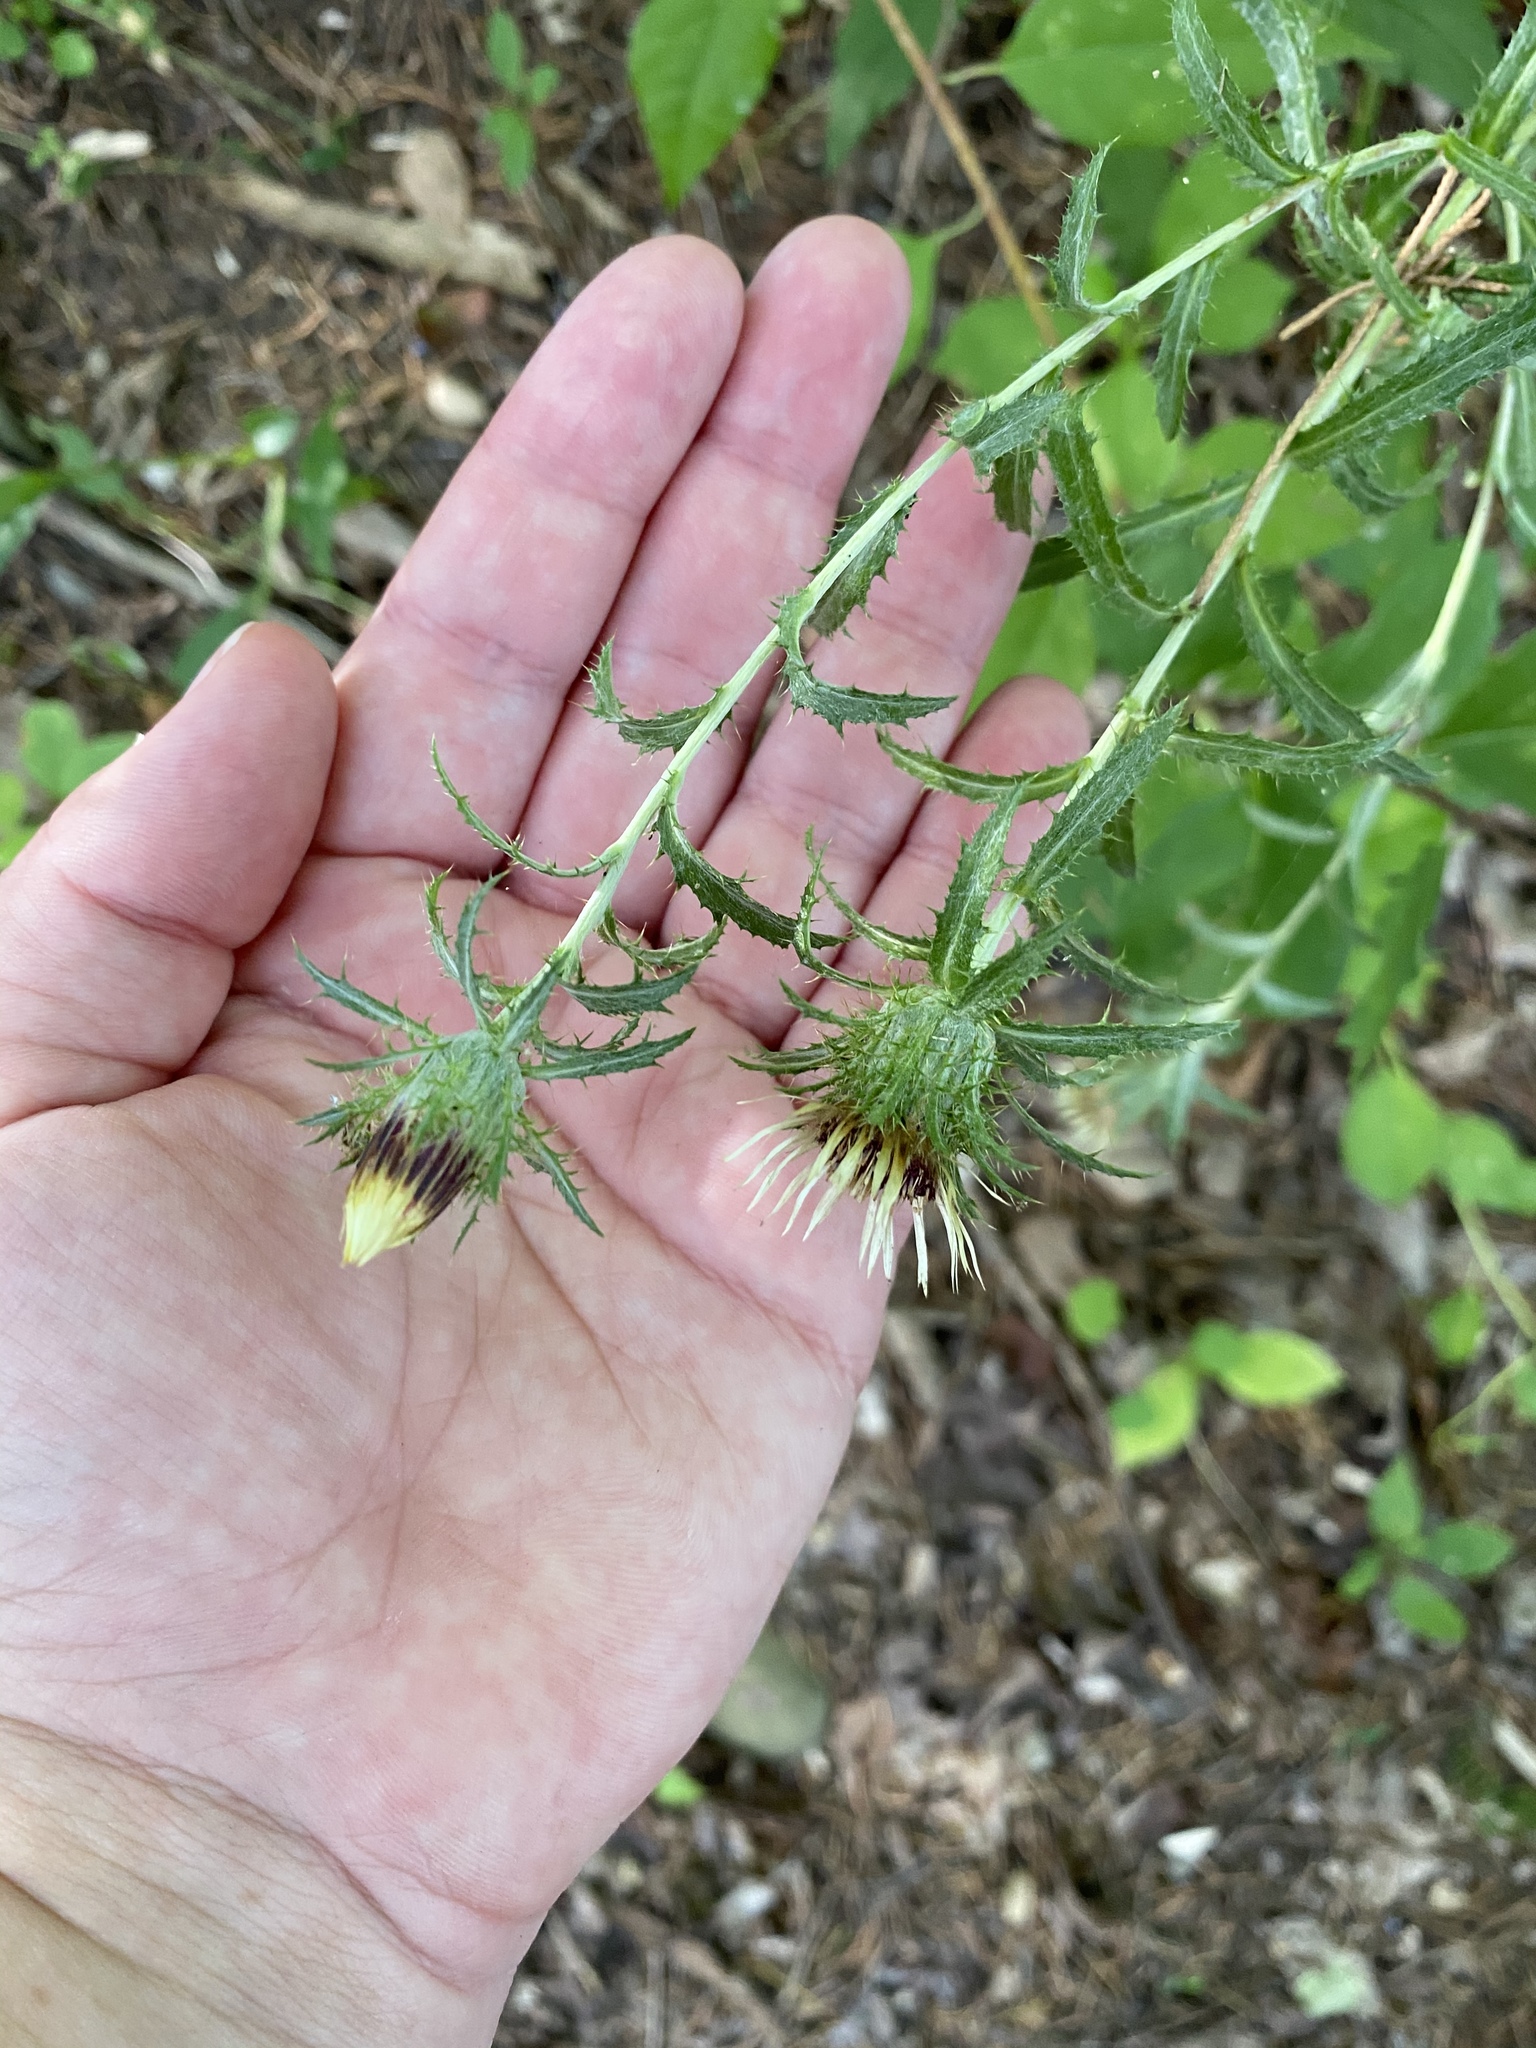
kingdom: Plantae
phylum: Tracheophyta
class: Magnoliopsida
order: Asterales
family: Asteraceae
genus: Carlina
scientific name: Carlina vulgaris
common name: Carline thistle
